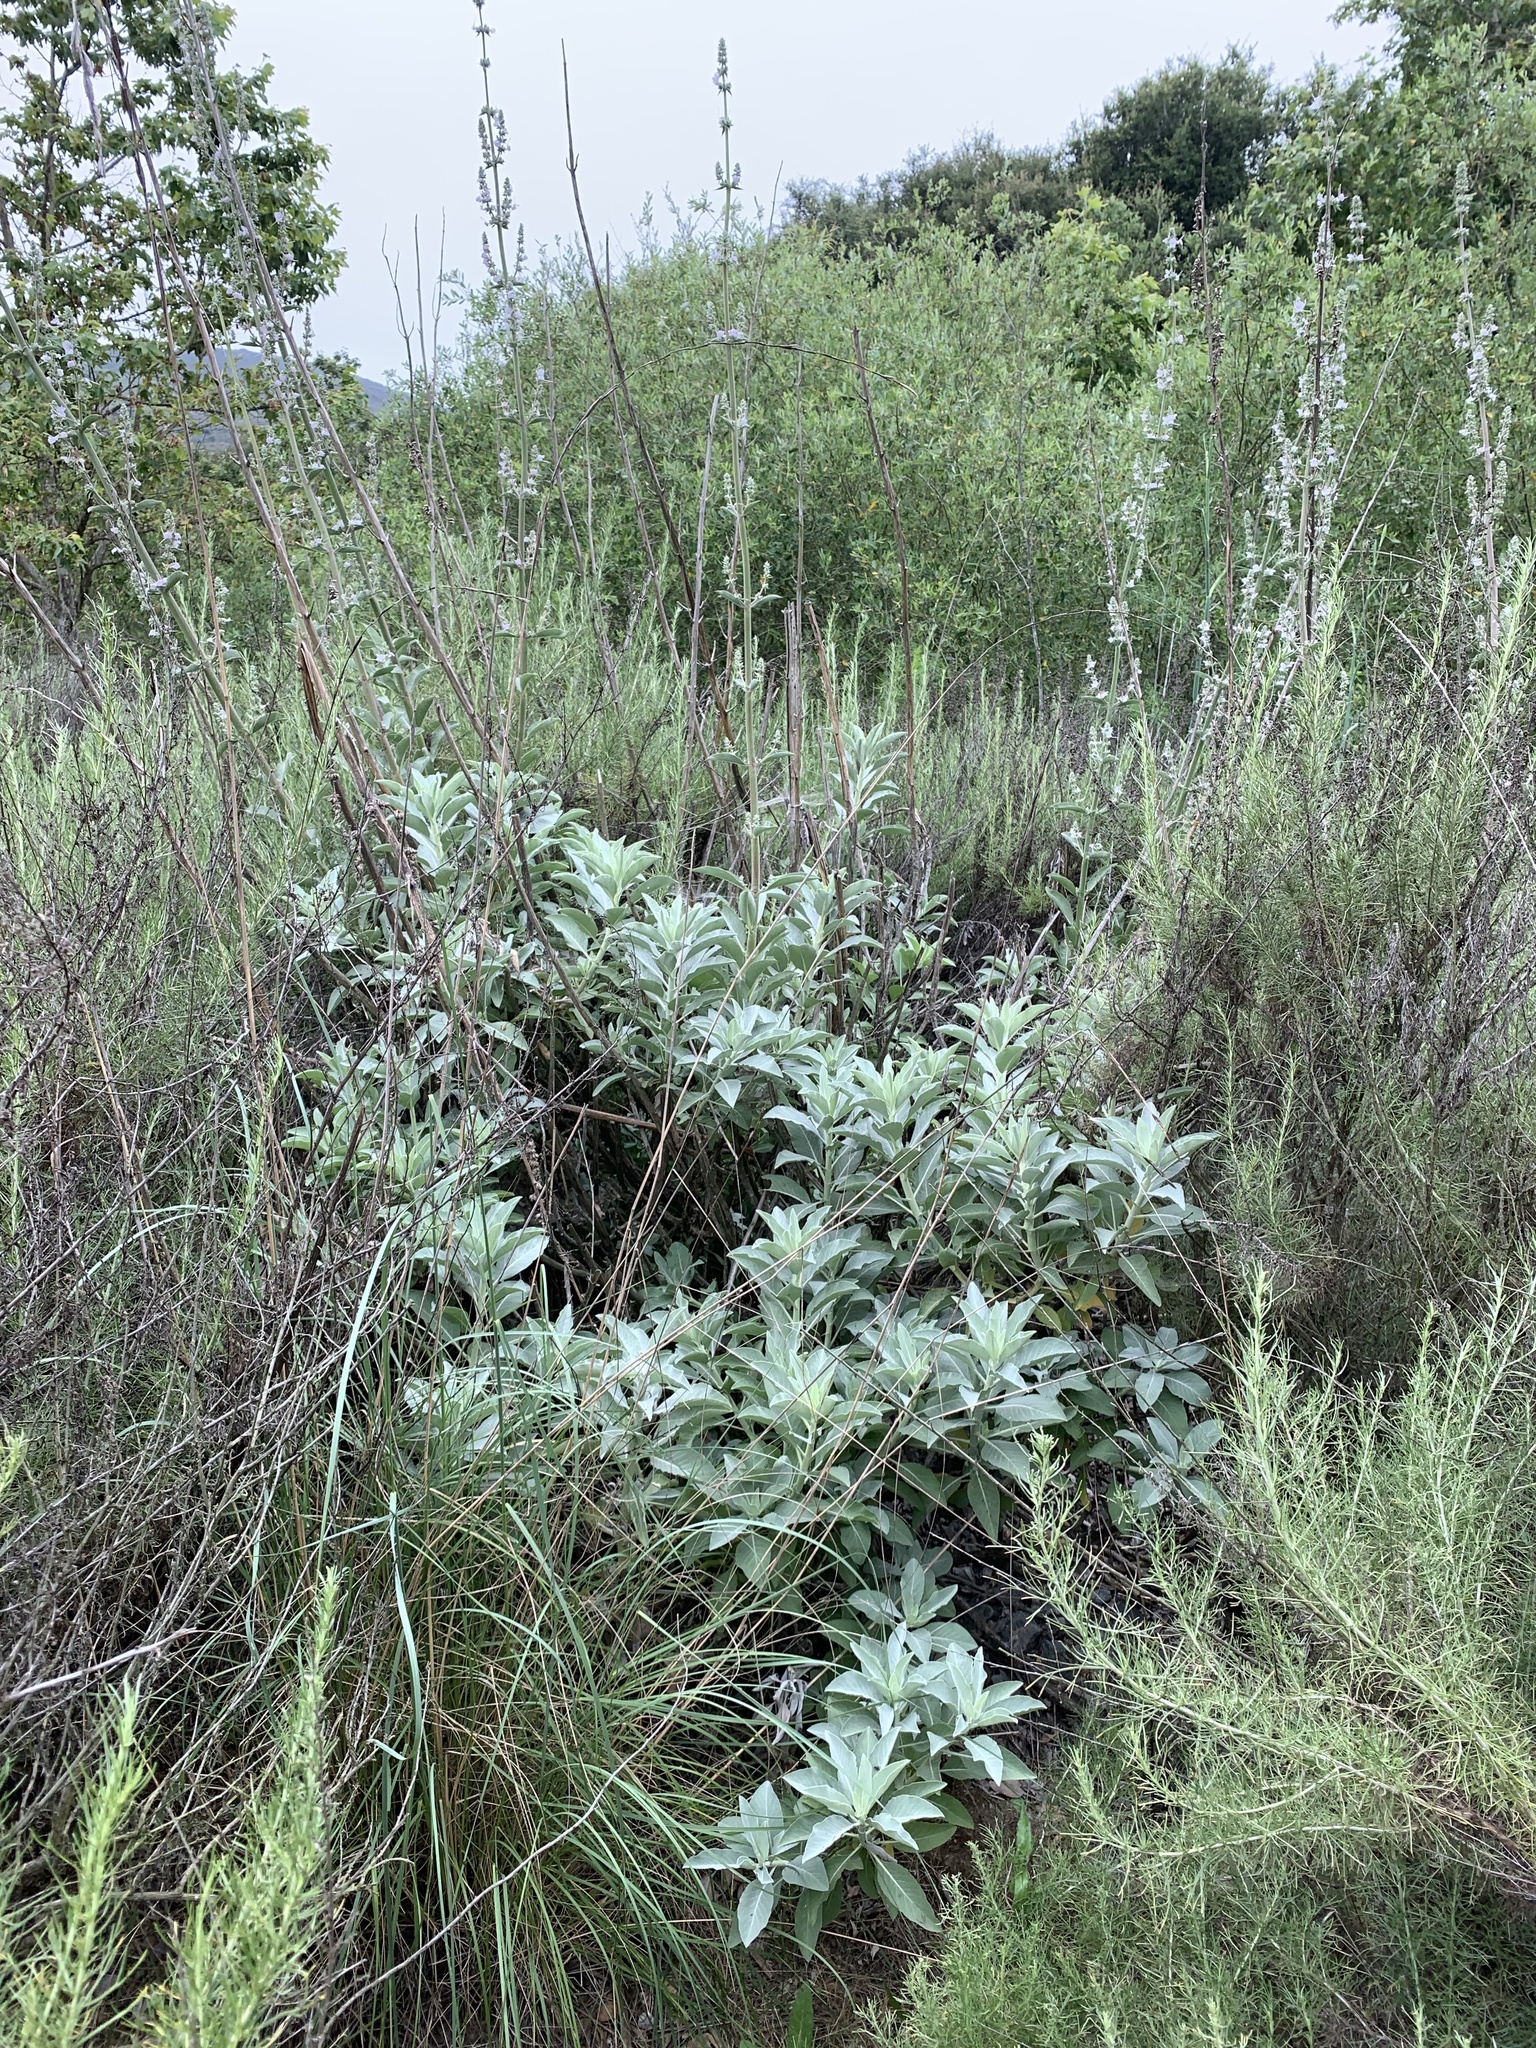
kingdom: Plantae
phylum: Tracheophyta
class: Magnoliopsida
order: Lamiales
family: Lamiaceae
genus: Salvia
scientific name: Salvia apiana
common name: White sage
